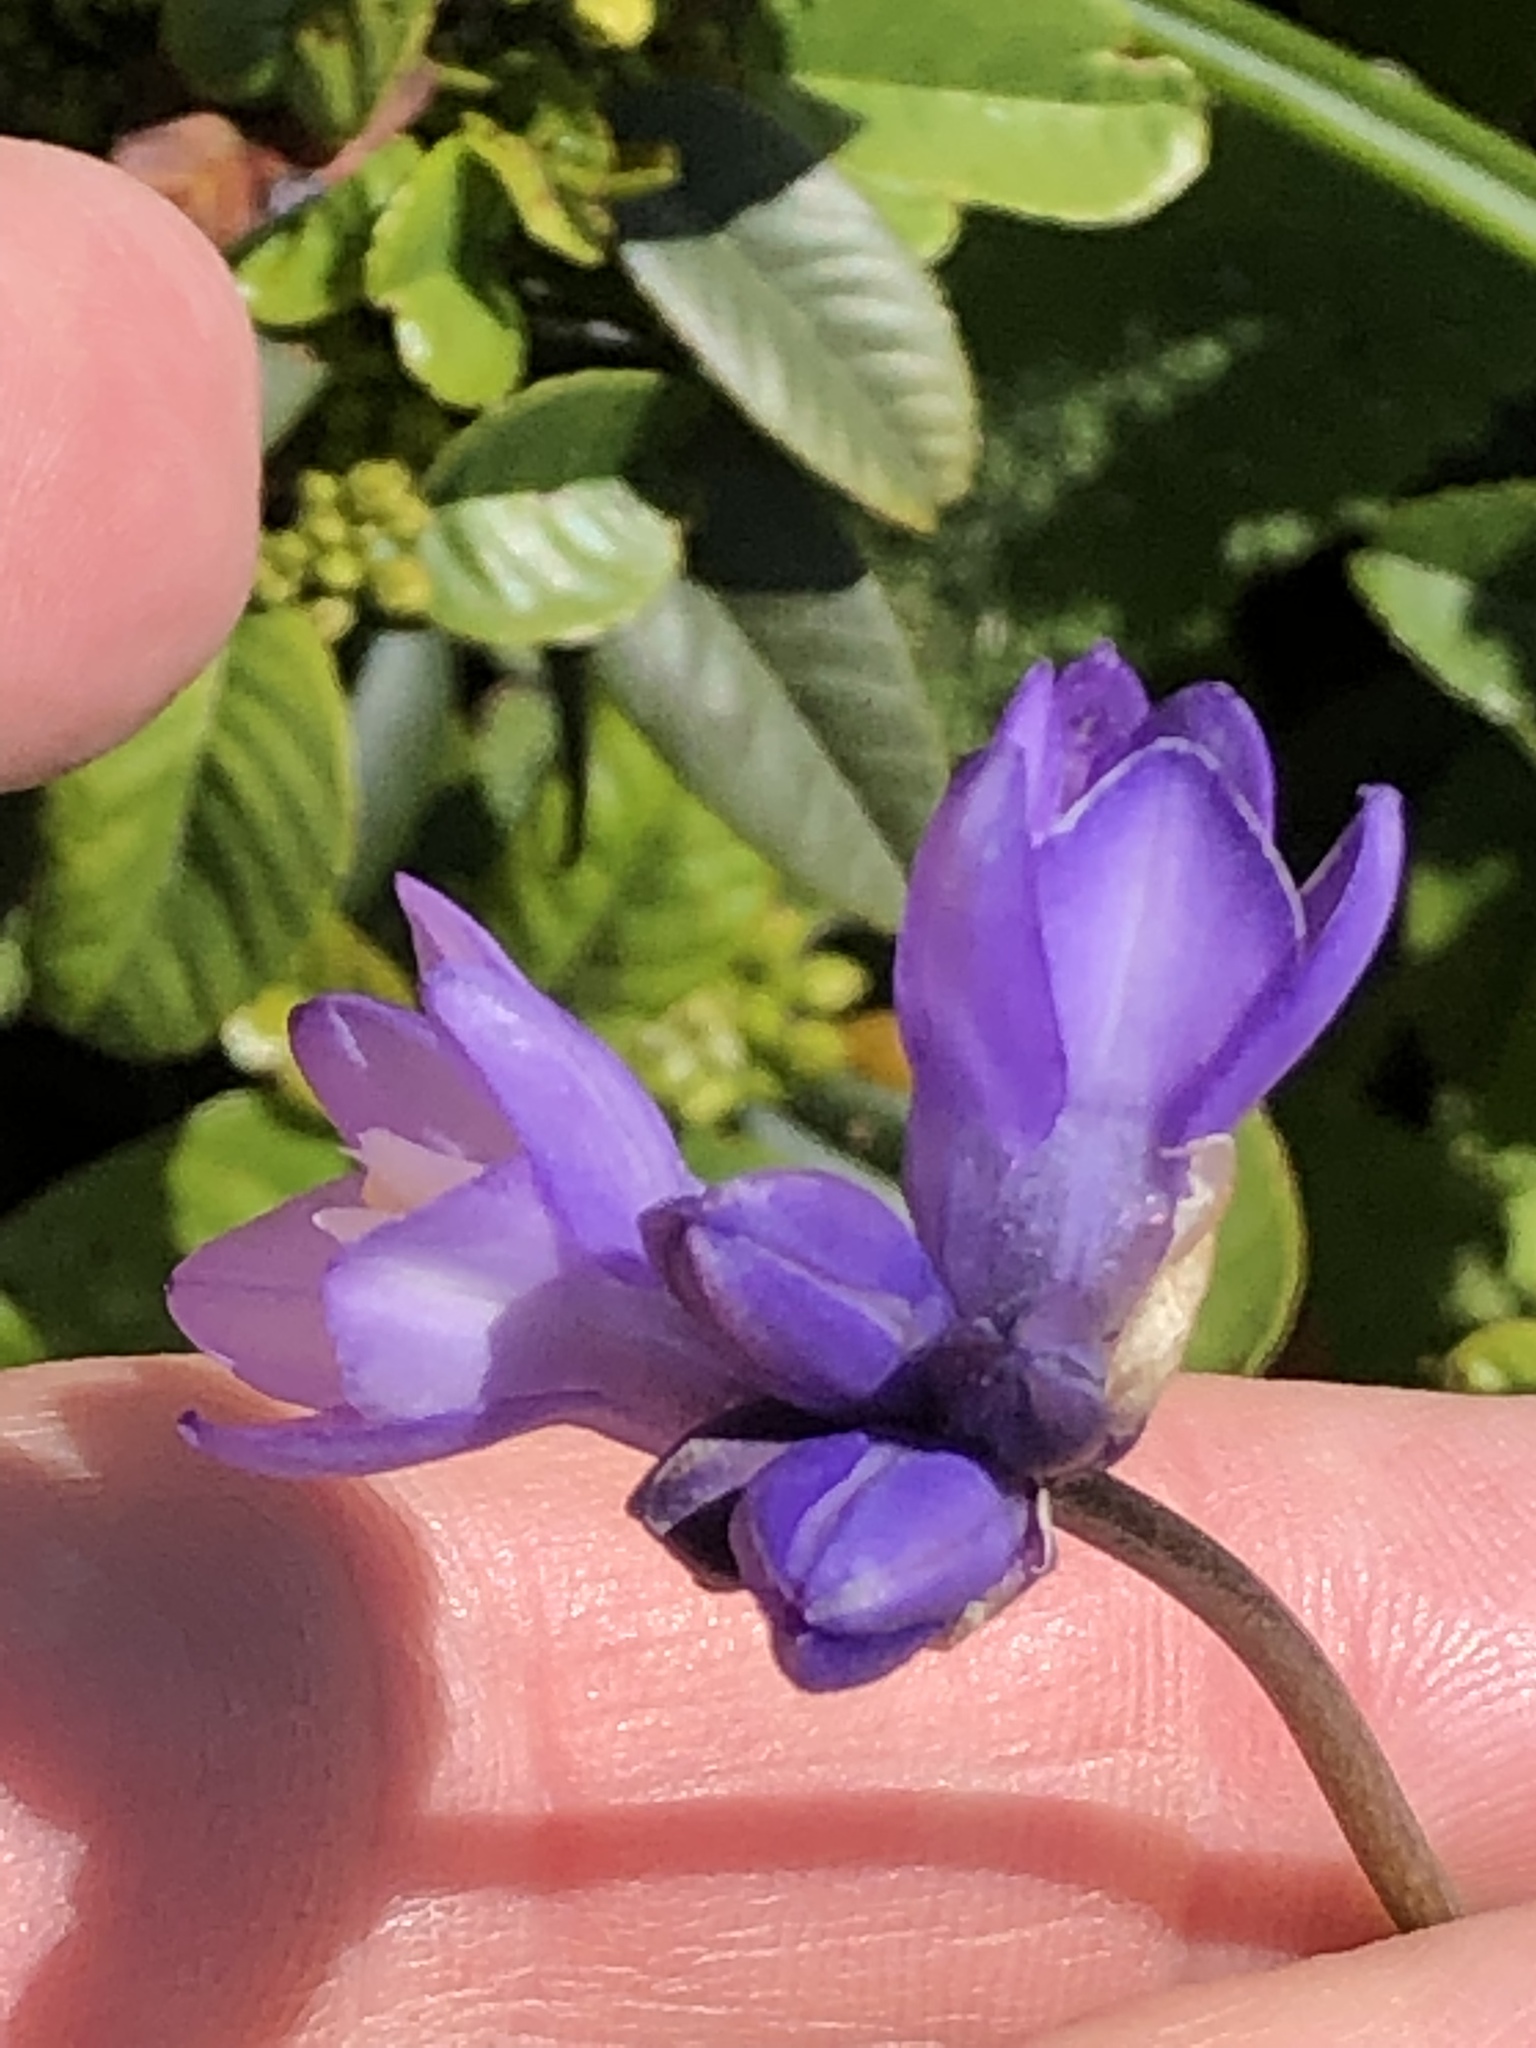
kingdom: Plantae
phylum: Tracheophyta
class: Liliopsida
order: Asparagales
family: Asparagaceae
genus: Dipterostemon
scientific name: Dipterostemon capitatus
